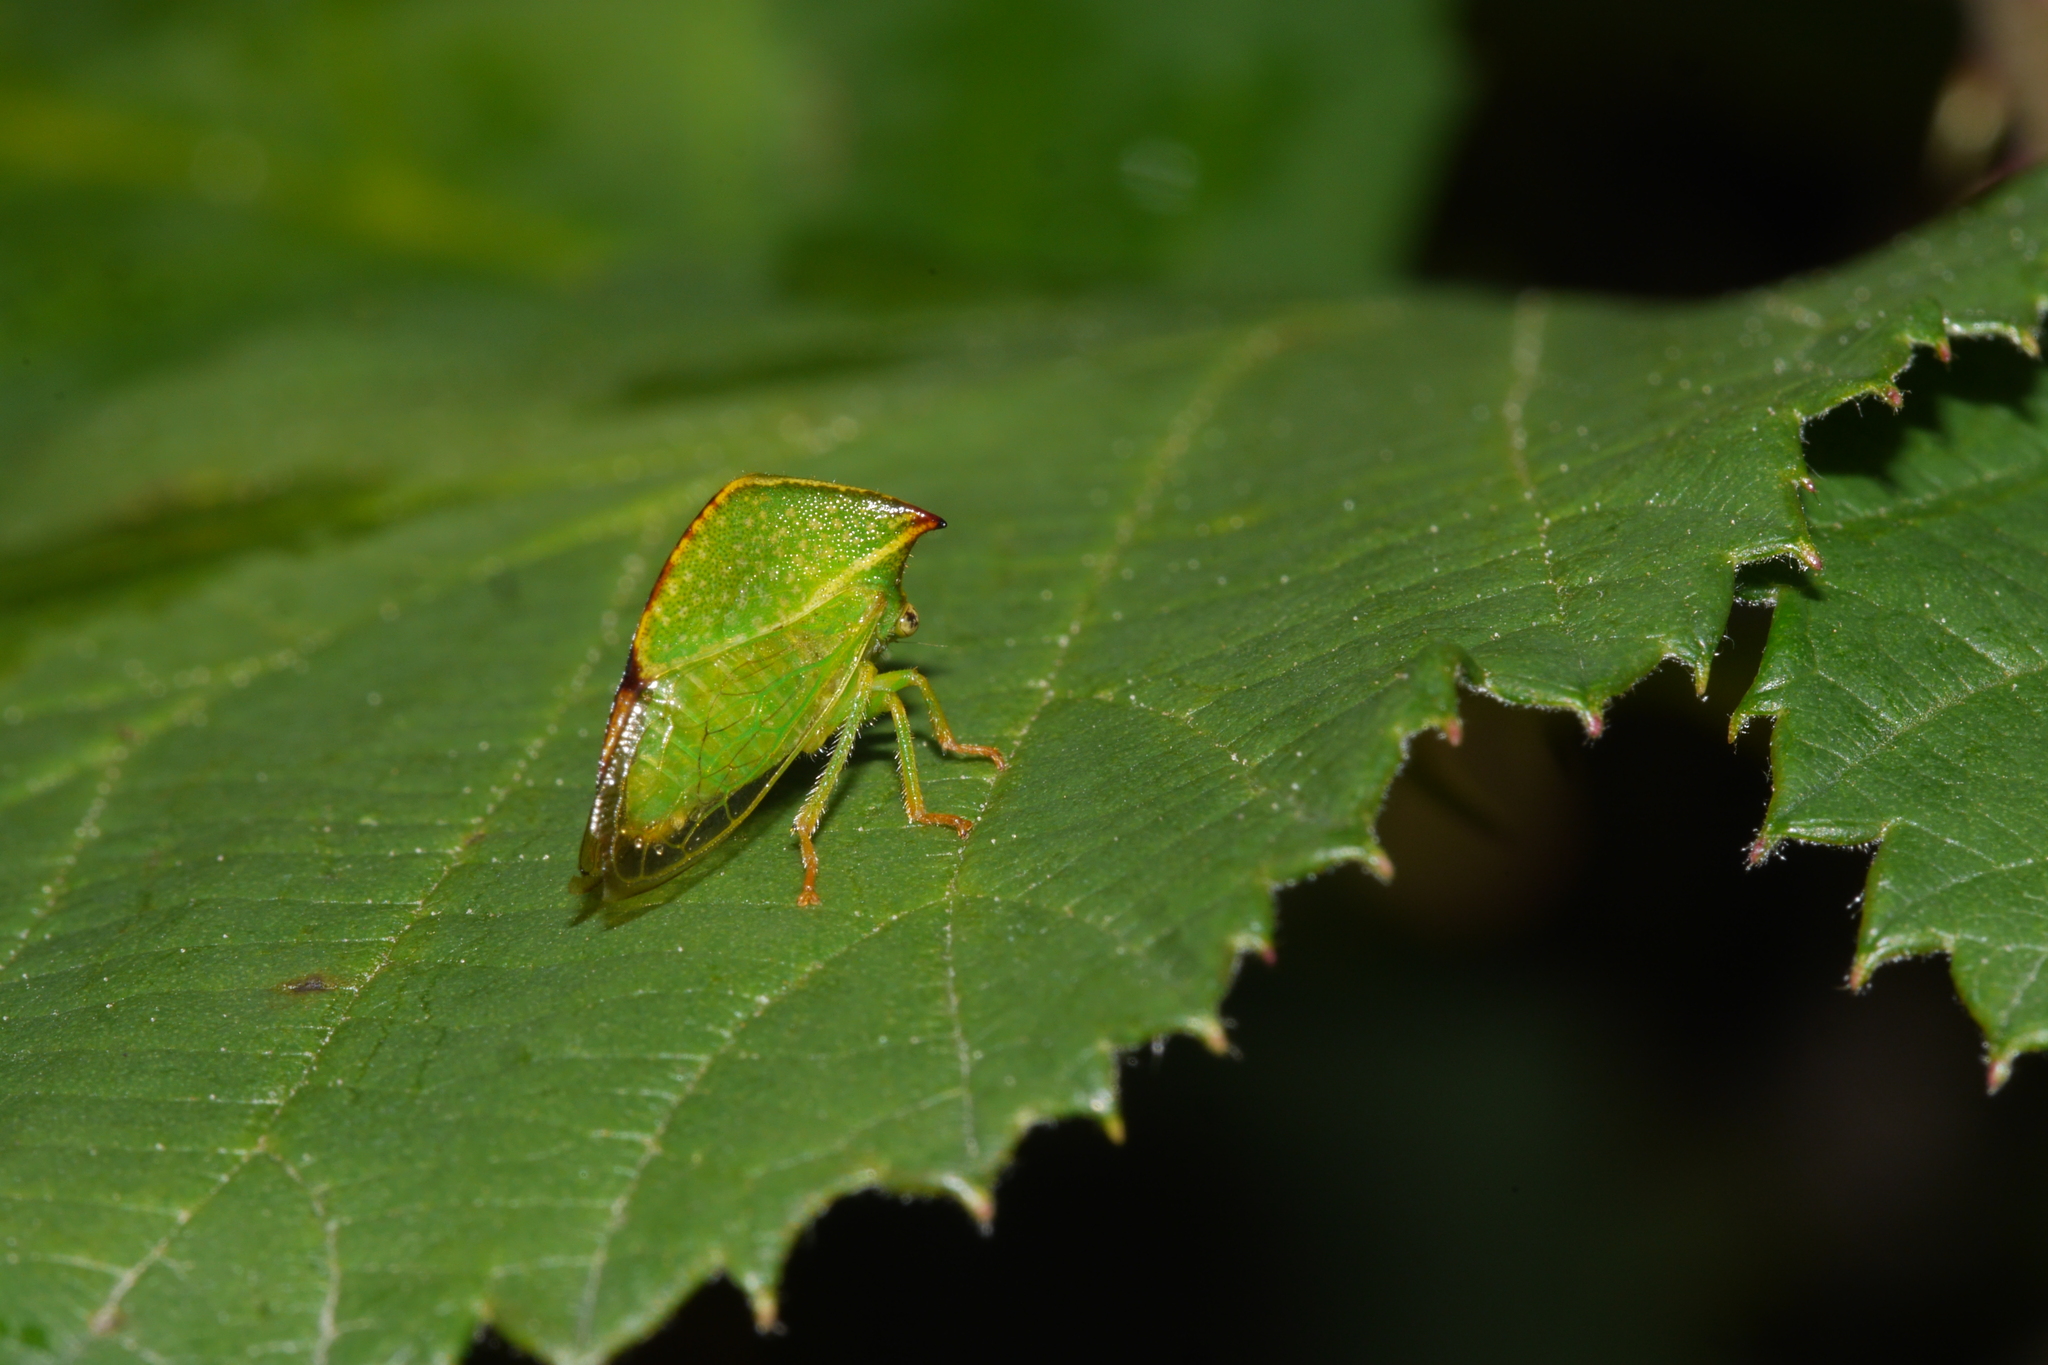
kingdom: Animalia
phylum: Arthropoda
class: Insecta
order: Hemiptera
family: Membracidae
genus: Stictocephala
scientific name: Stictocephala bisonia
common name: American buffalo treehopper
